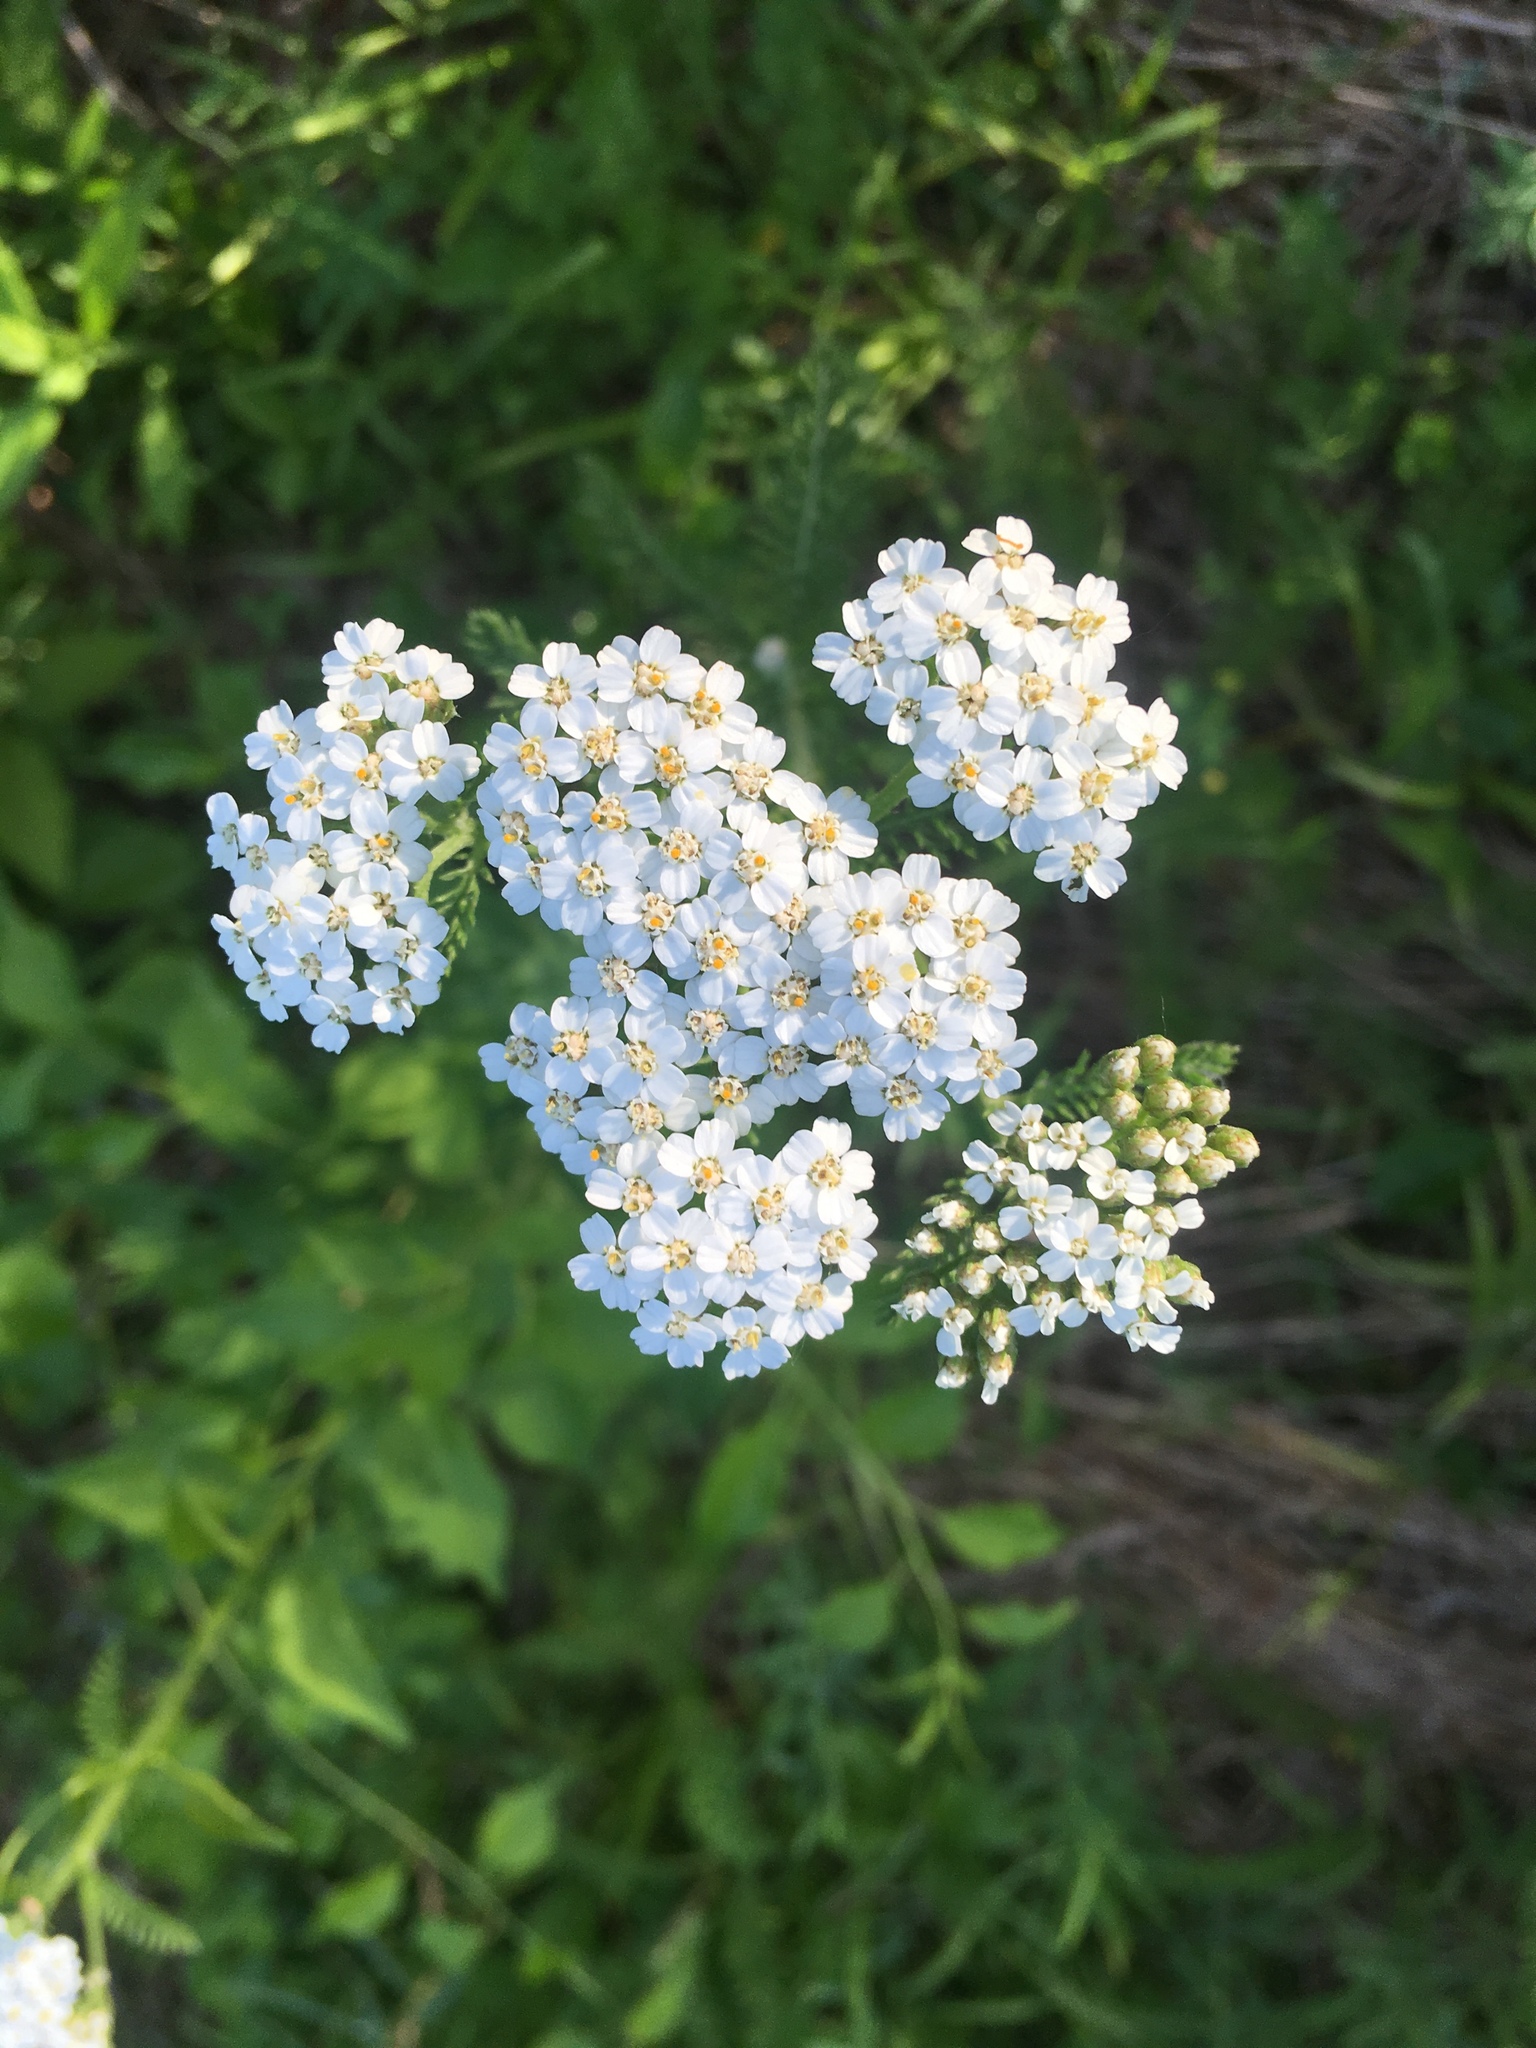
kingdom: Plantae
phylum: Tracheophyta
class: Magnoliopsida
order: Asterales
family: Asteraceae
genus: Achillea
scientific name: Achillea millefolium
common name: Yarrow
